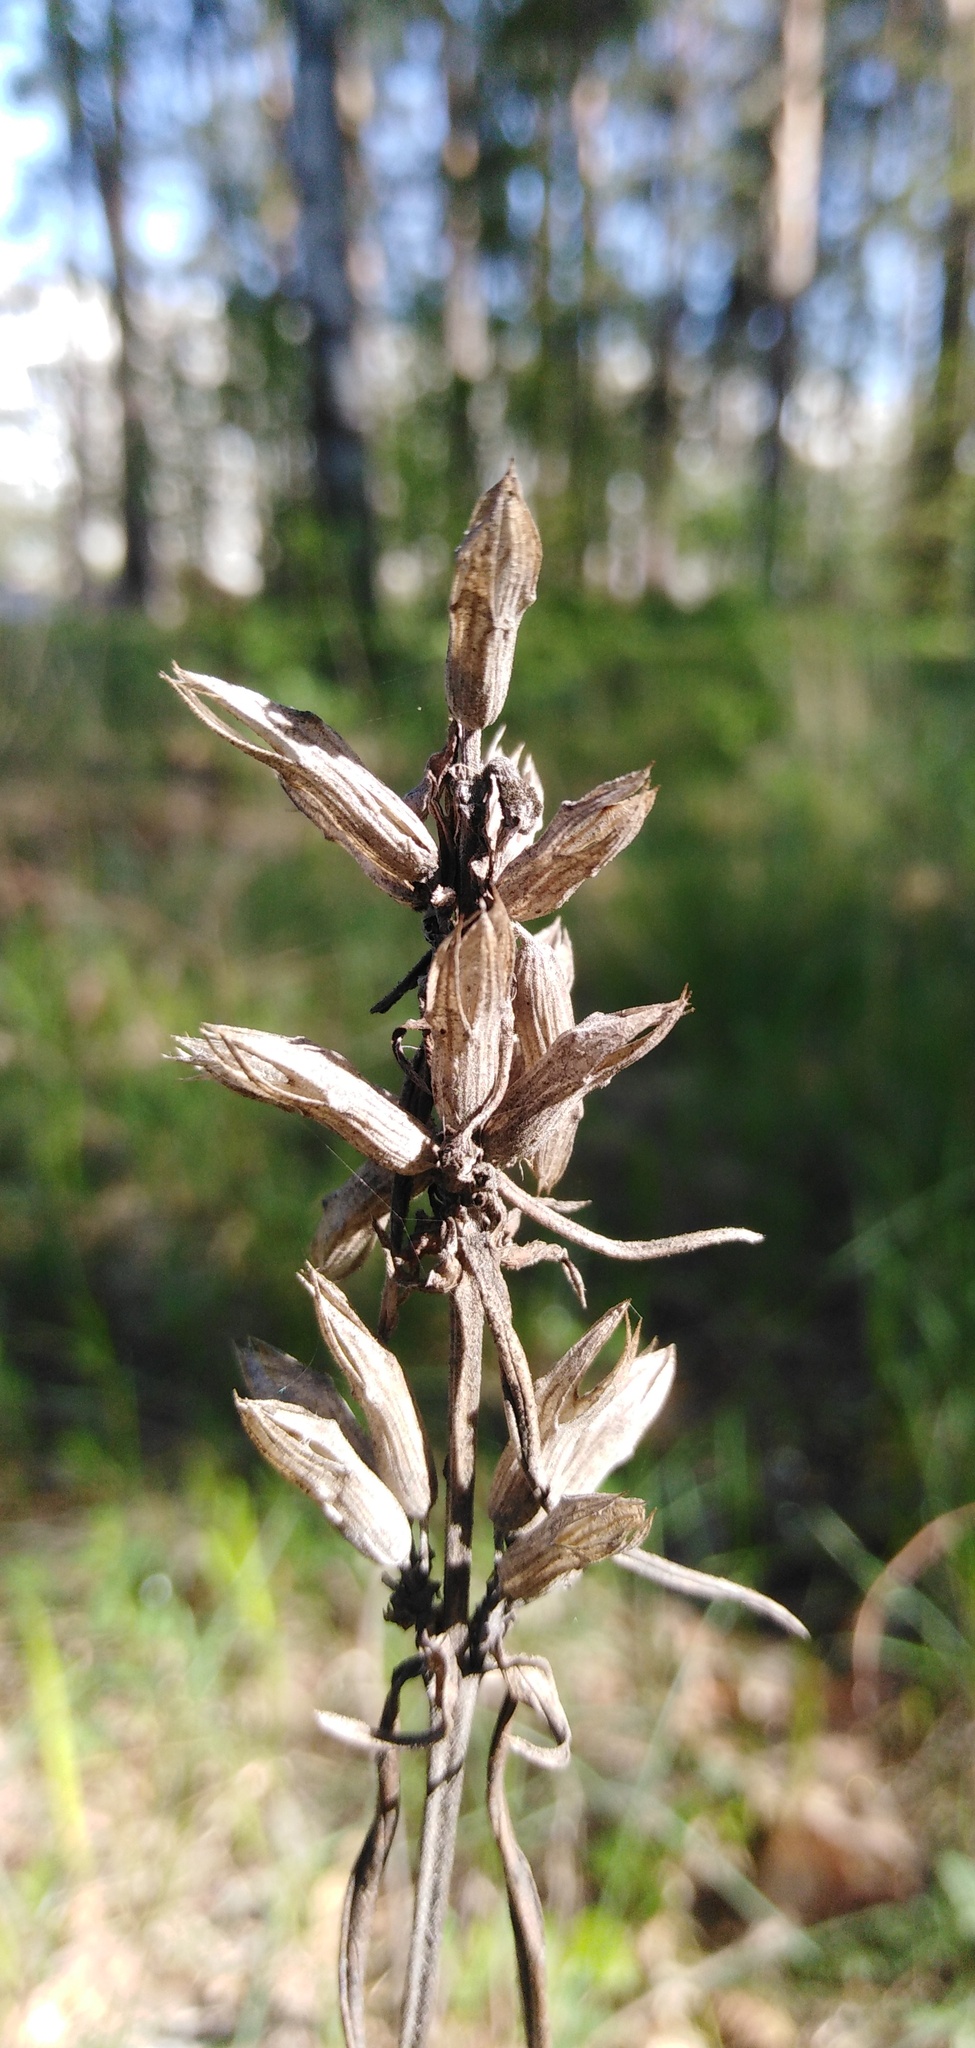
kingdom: Plantae
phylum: Tracheophyta
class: Magnoliopsida
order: Lamiales
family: Lamiaceae
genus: Dracocephalum
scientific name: Dracocephalum ruyschiana
